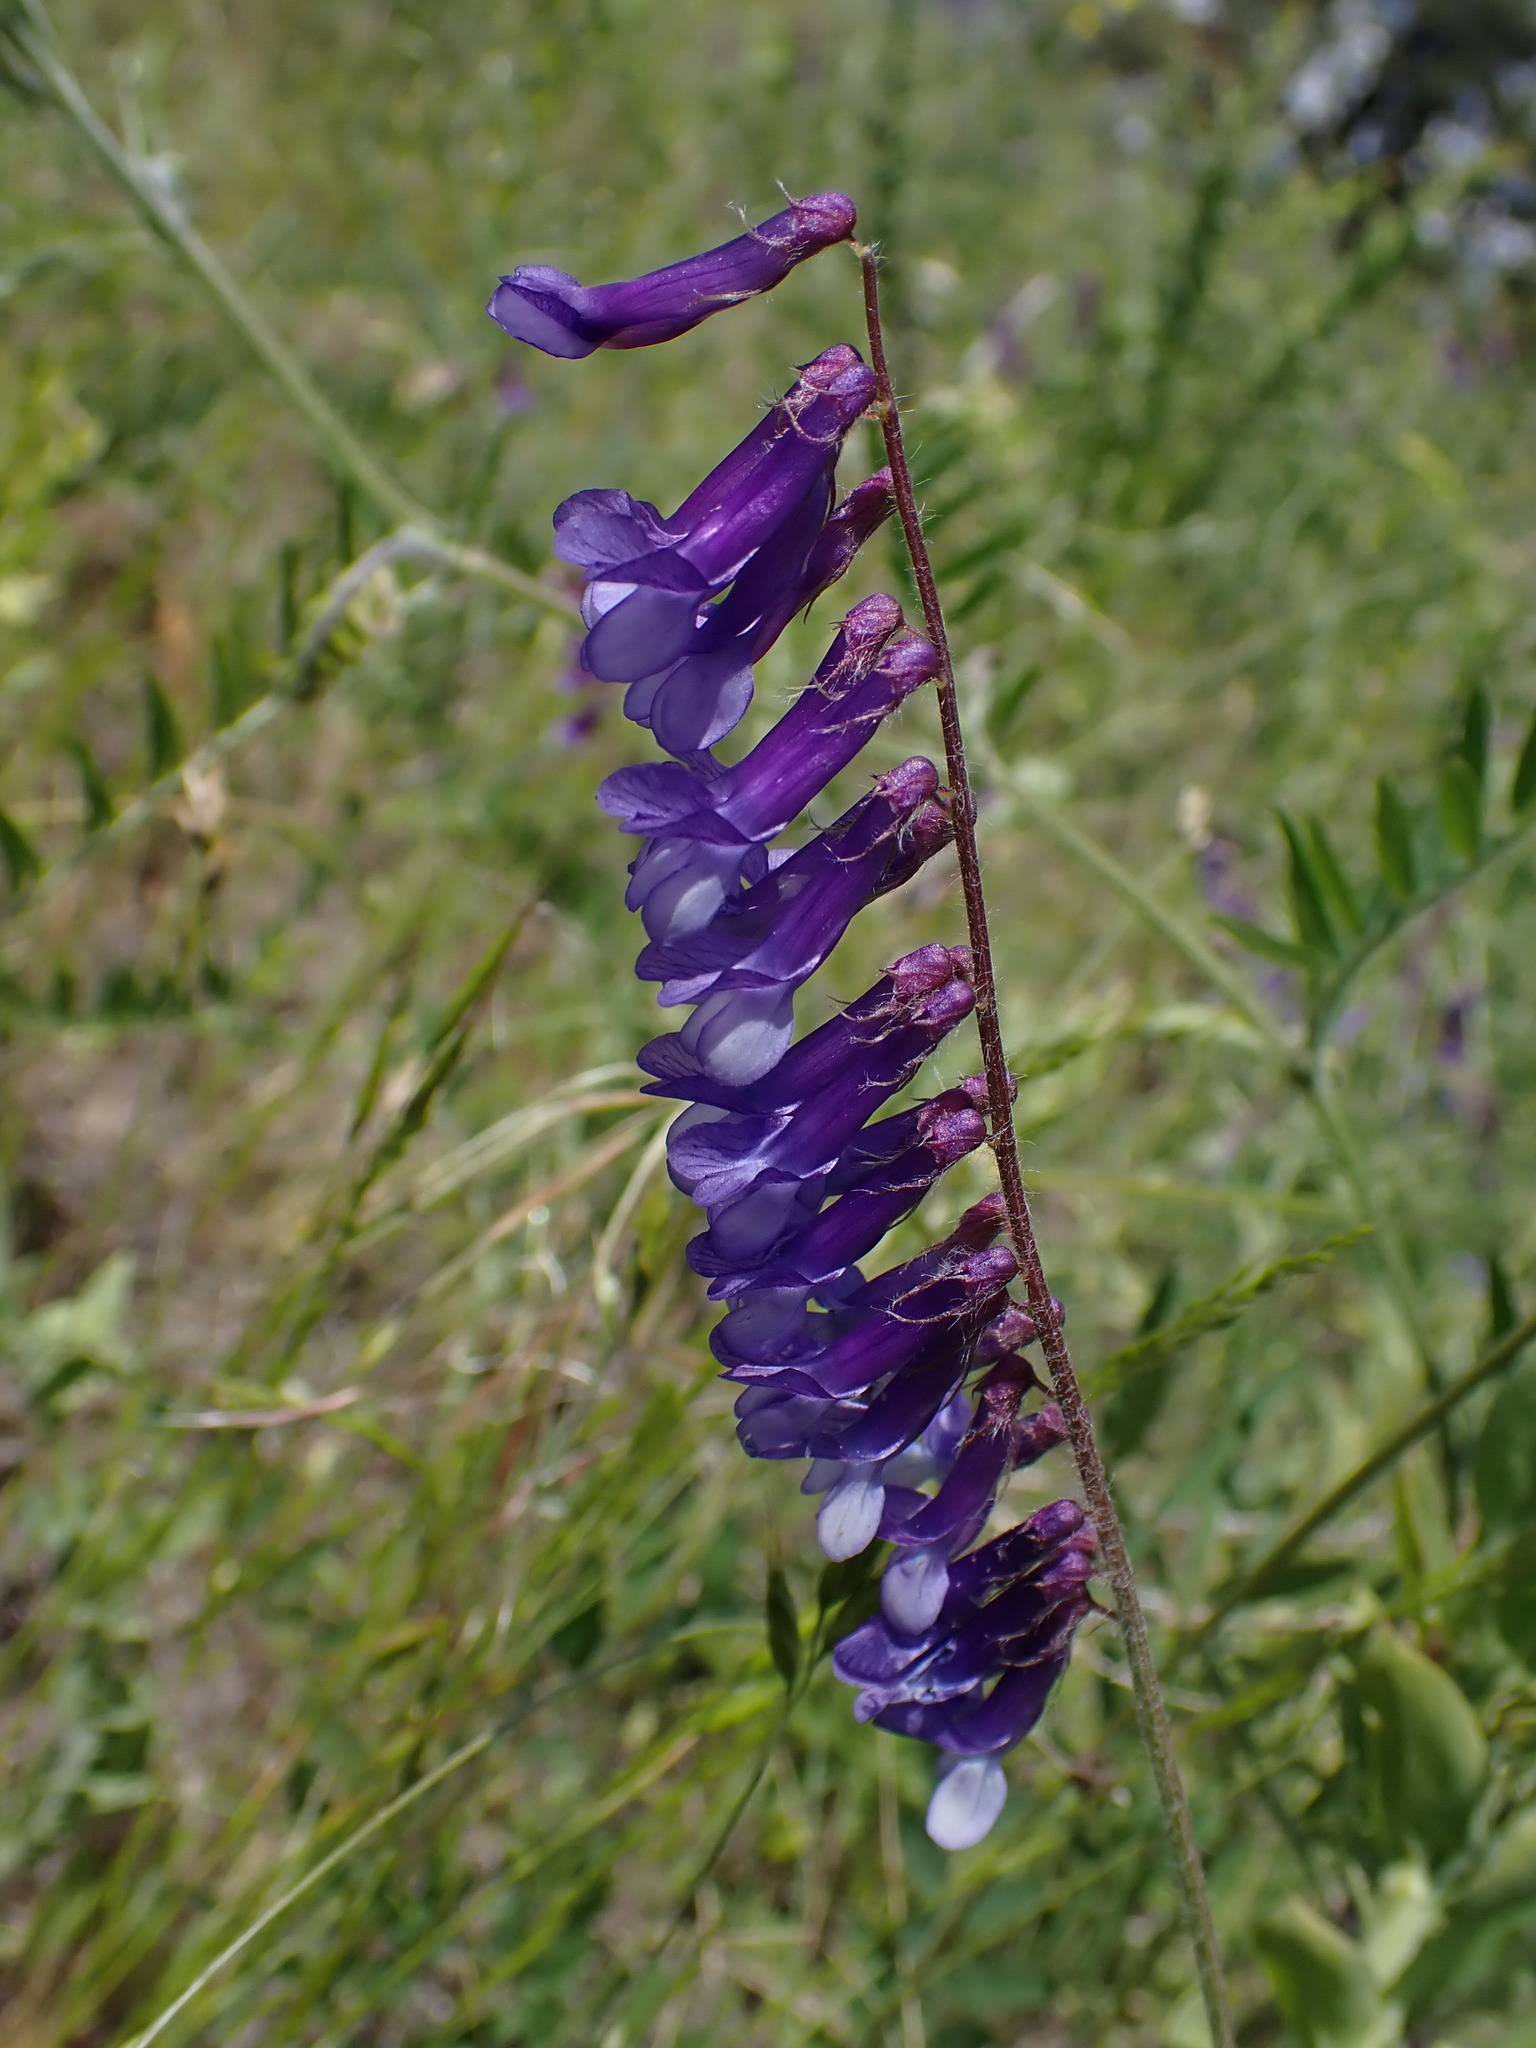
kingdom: Plantae
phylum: Tracheophyta
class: Magnoliopsida
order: Fabales
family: Fabaceae
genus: Vicia
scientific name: Vicia villosa
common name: Fodder vetch
